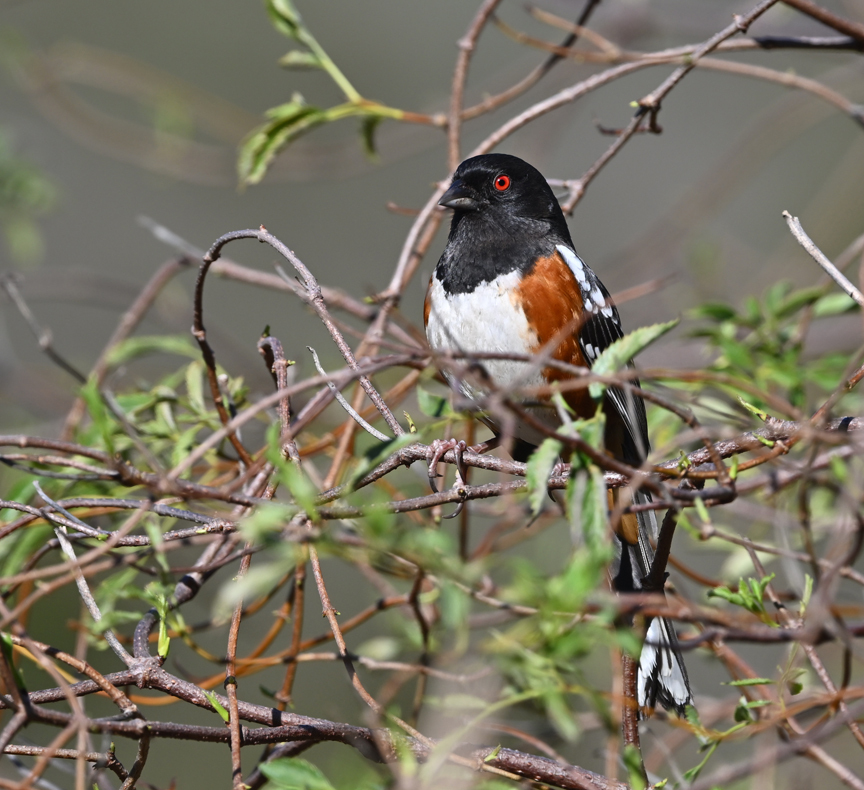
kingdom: Animalia
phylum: Chordata
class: Aves
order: Passeriformes
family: Passerellidae
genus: Pipilo
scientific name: Pipilo maculatus
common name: Spotted towhee
